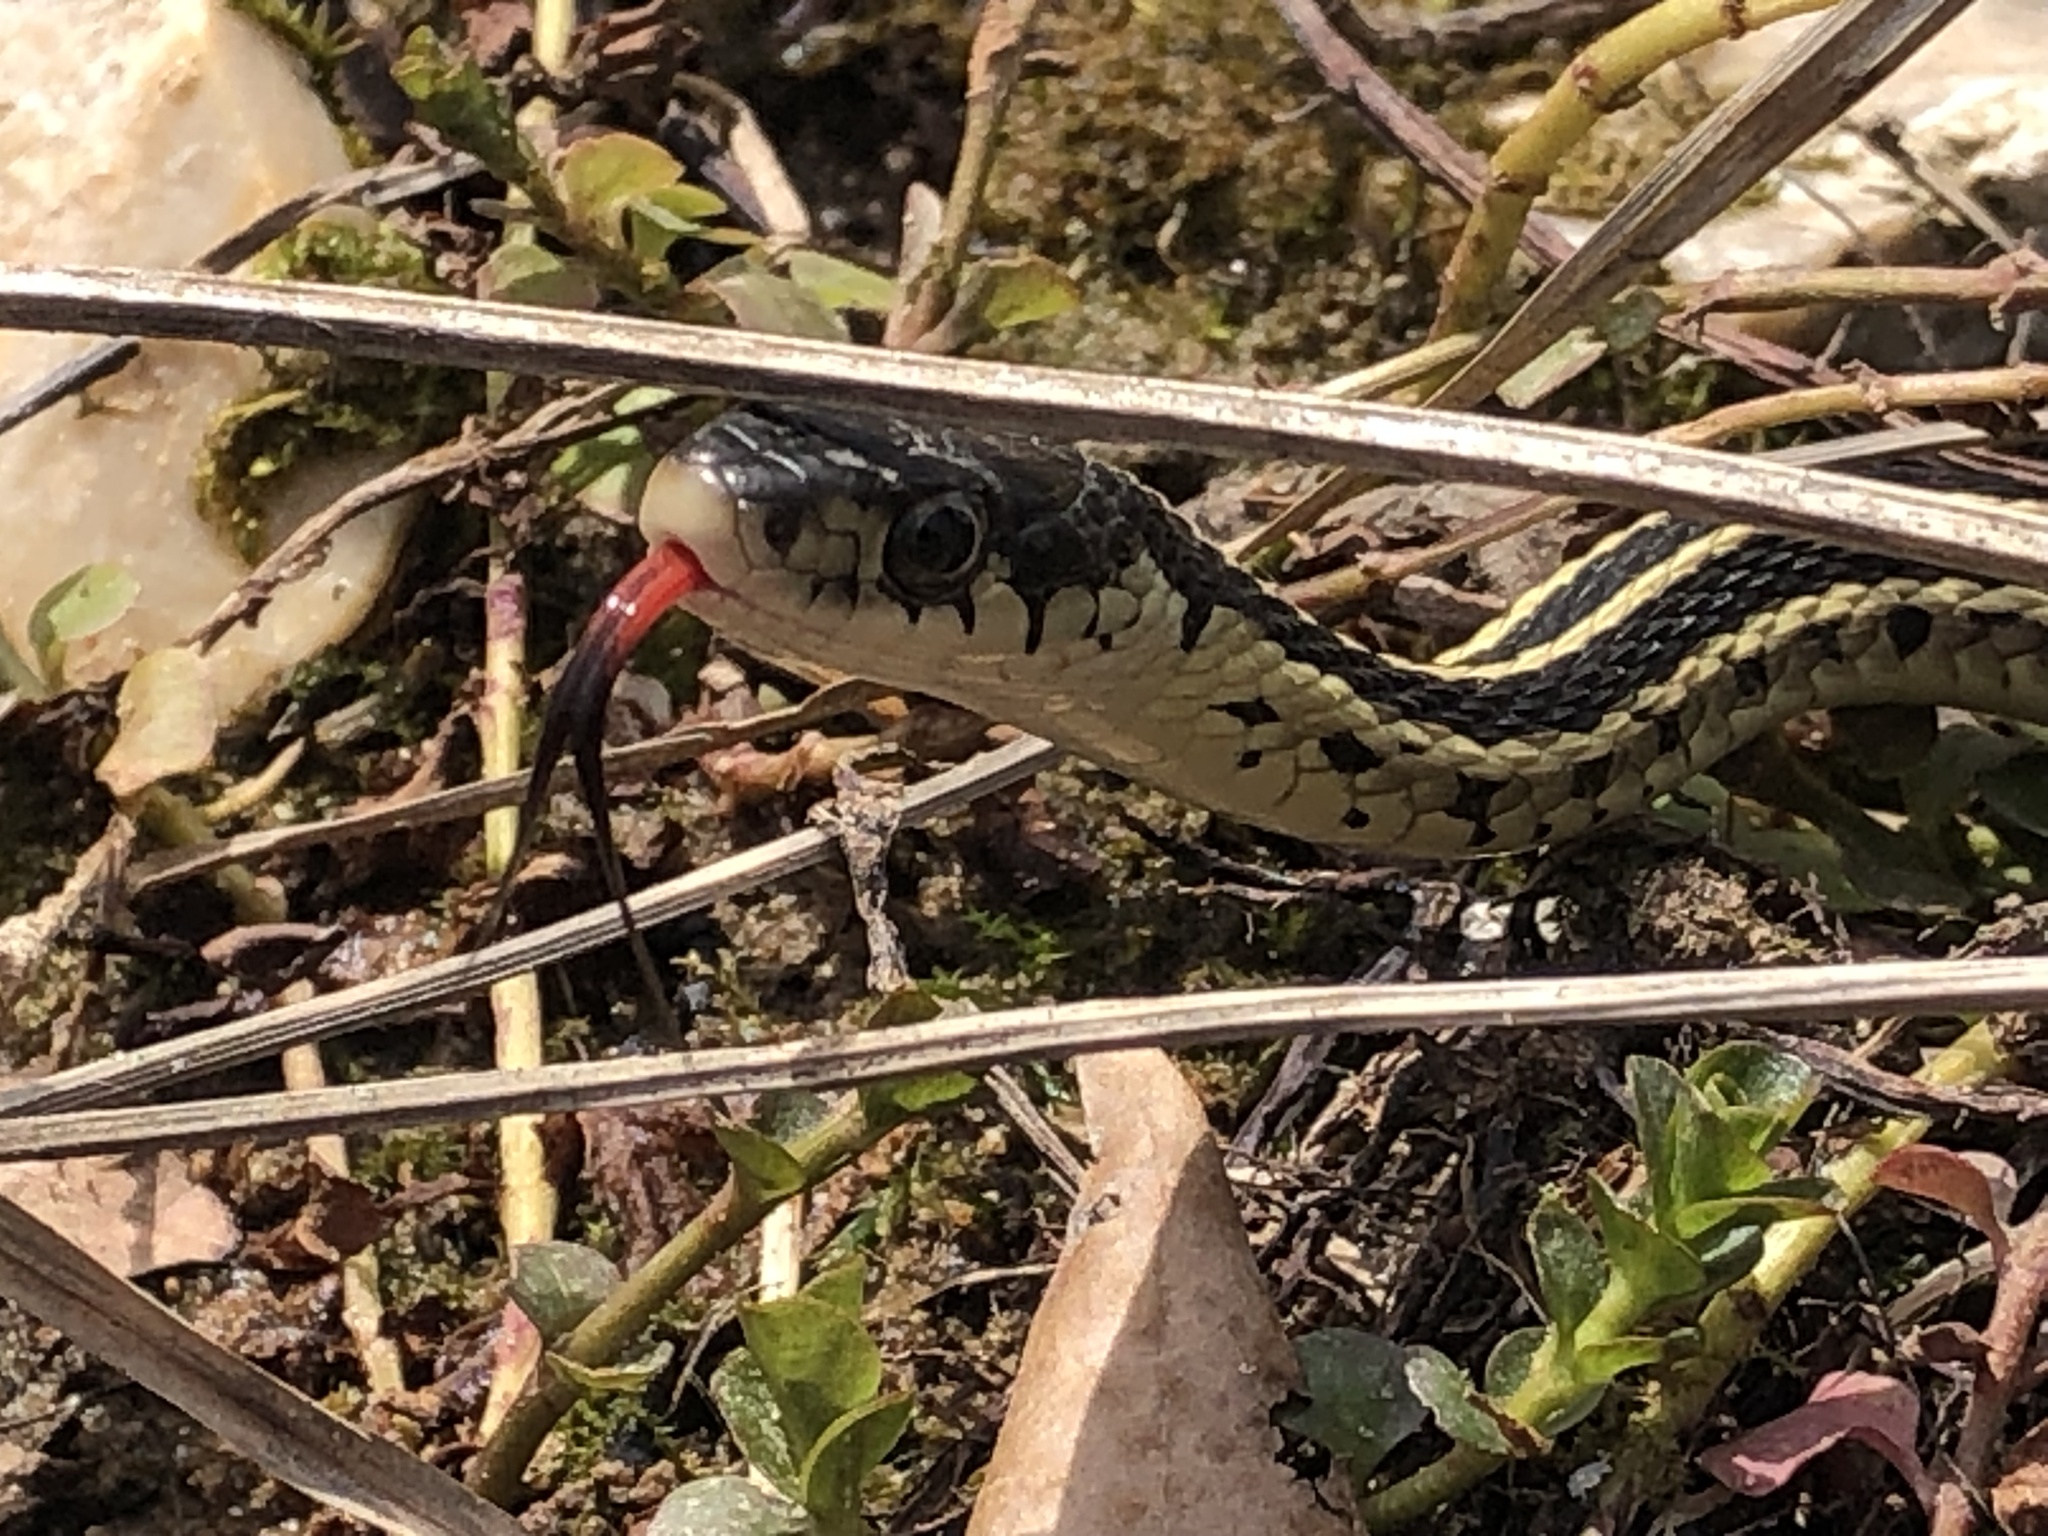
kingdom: Animalia
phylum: Chordata
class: Squamata
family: Colubridae
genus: Thamnophis
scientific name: Thamnophis sirtalis
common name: Common garter snake
